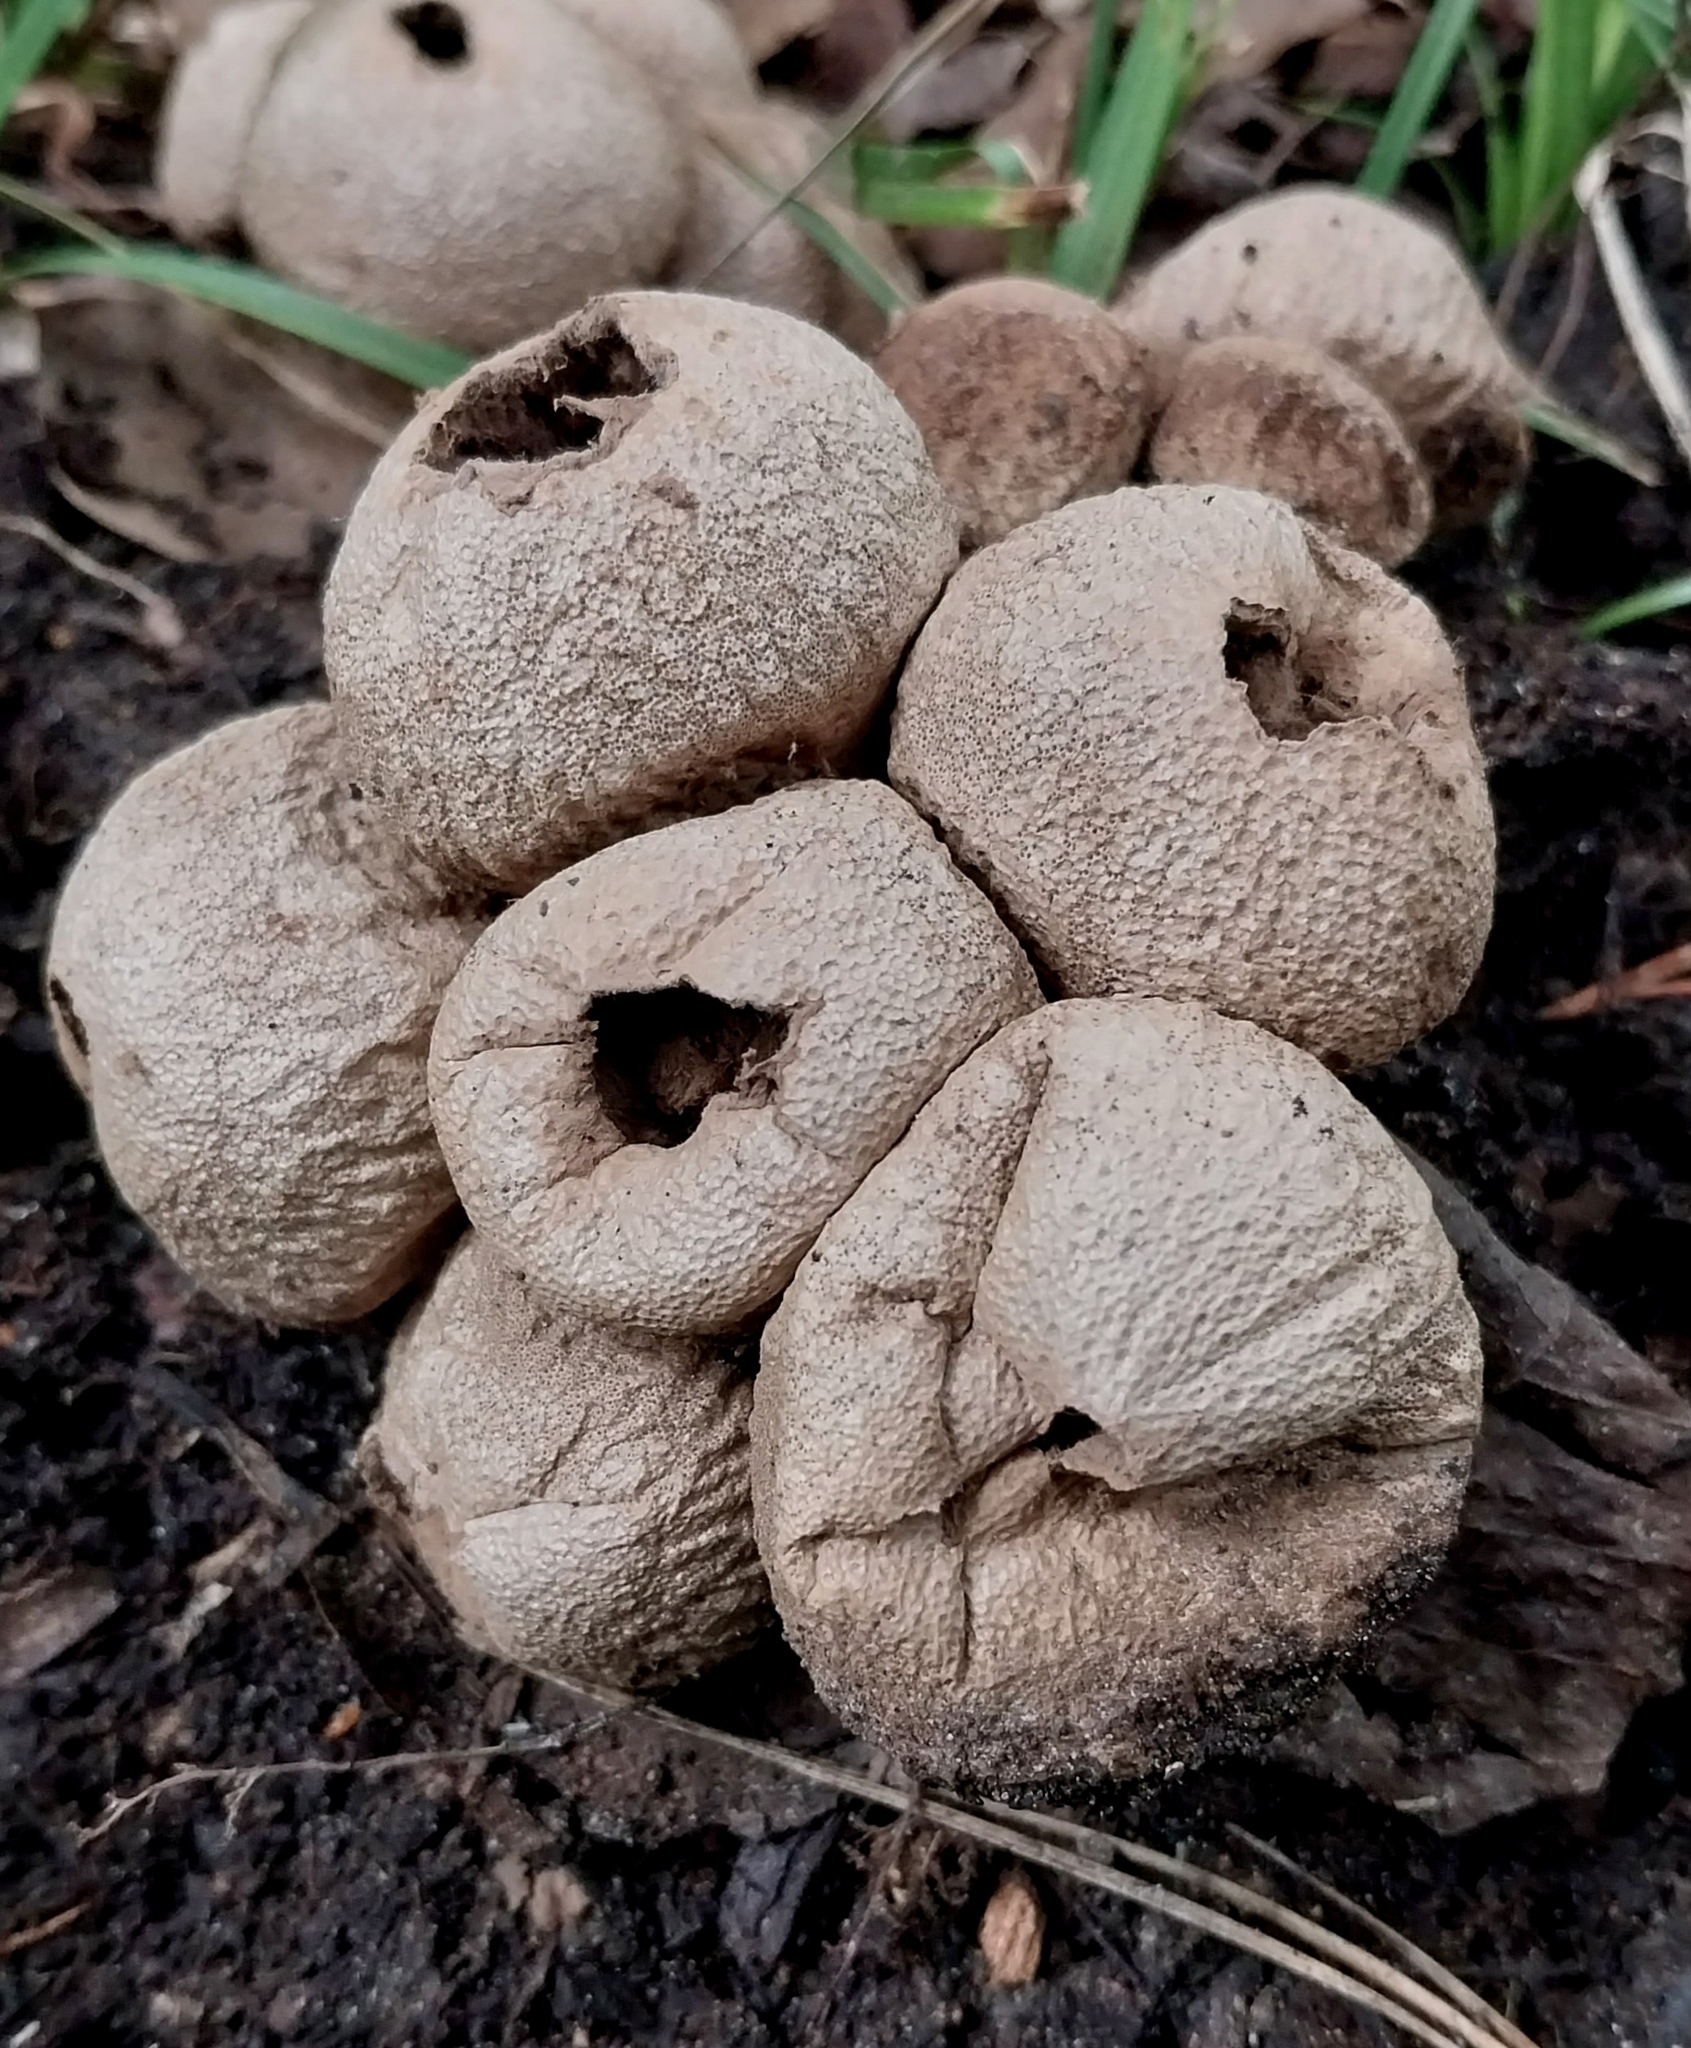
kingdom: Fungi
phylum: Basidiomycota
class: Agaricomycetes
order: Agaricales
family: Lycoperdaceae
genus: Lycoperdon
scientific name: Lycoperdon perlatum
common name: Common puffball
